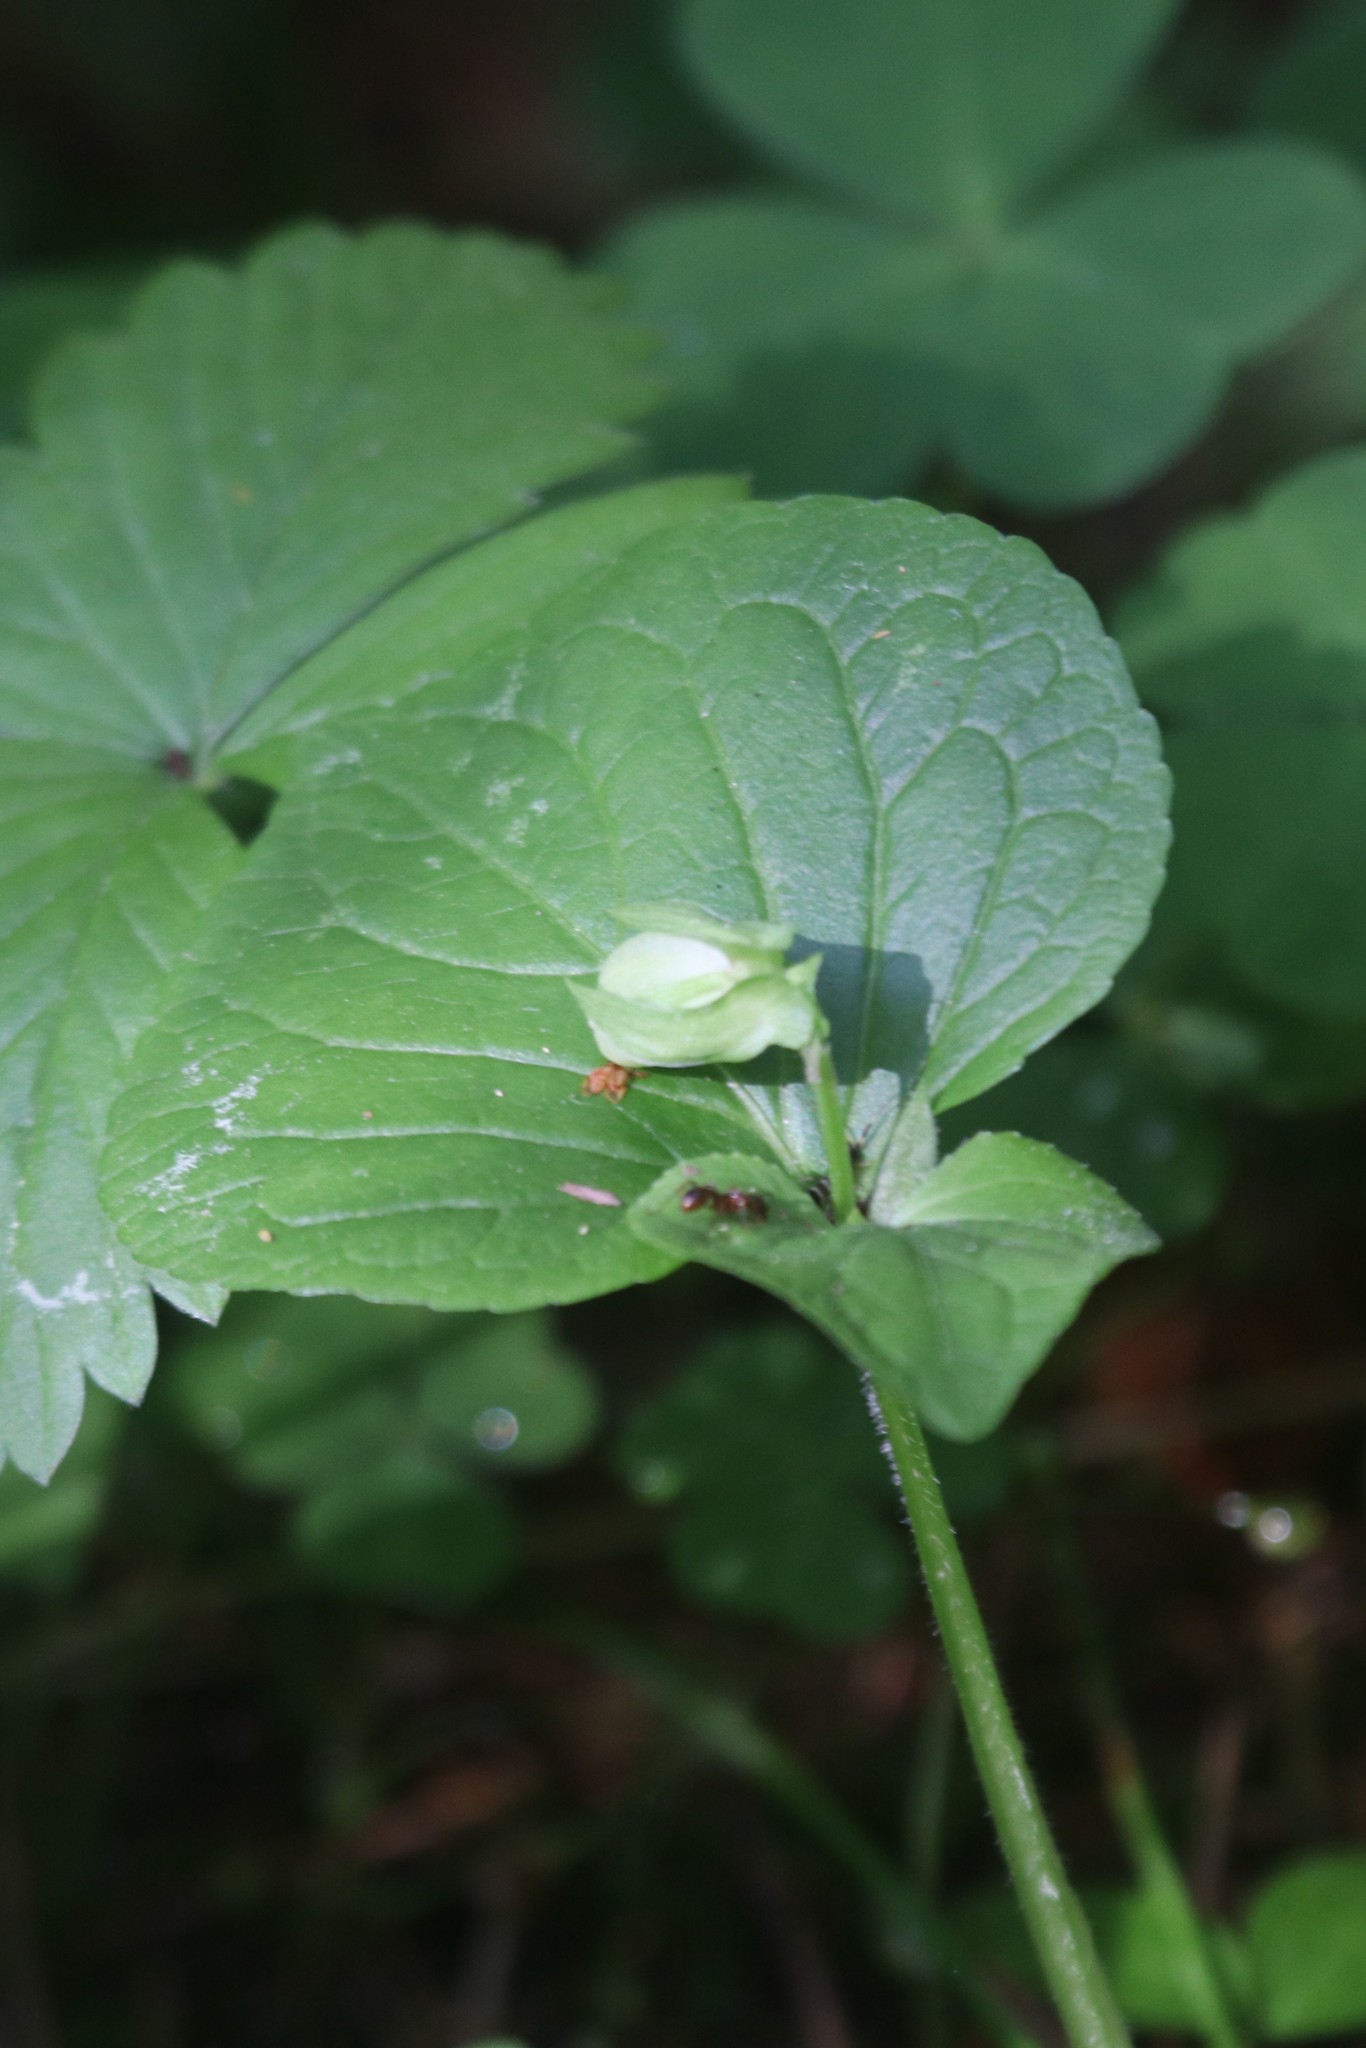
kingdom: Plantae
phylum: Tracheophyta
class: Magnoliopsida
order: Malpighiales
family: Violaceae
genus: Viola
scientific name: Viola mirabilis
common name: Wonder violet
